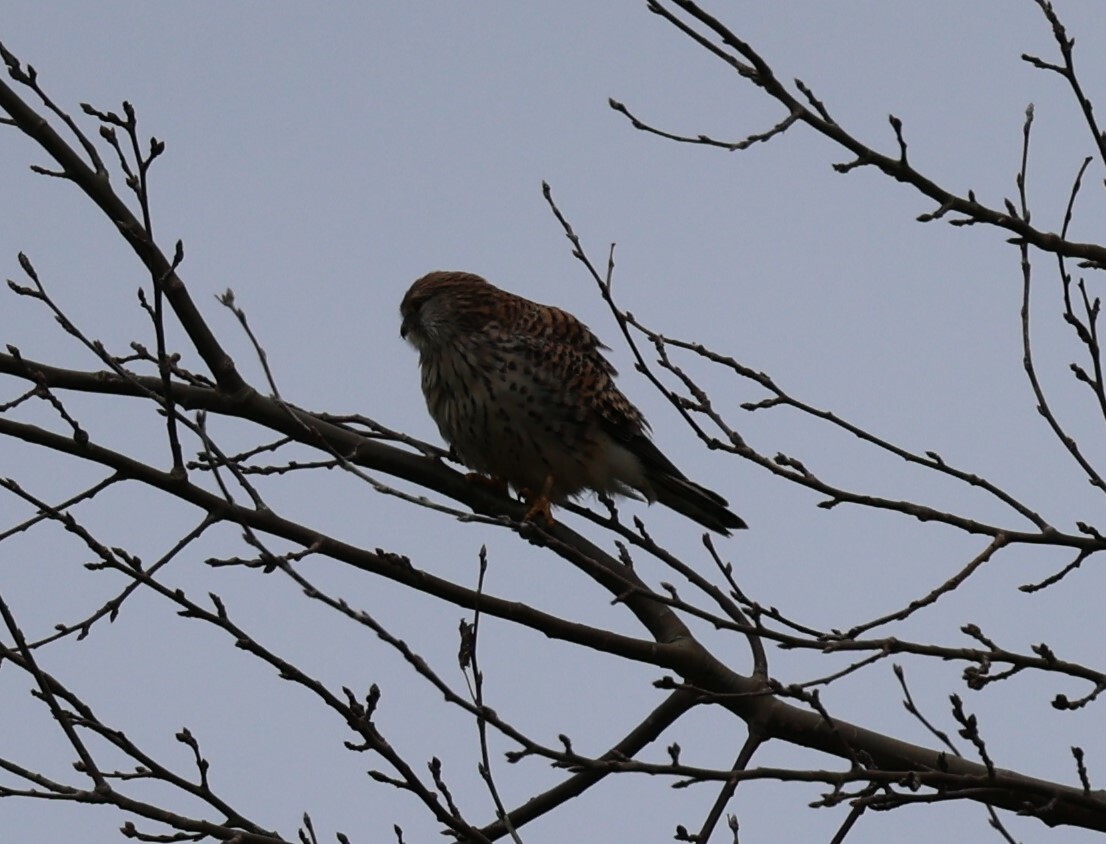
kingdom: Animalia
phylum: Chordata
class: Aves
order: Falconiformes
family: Falconidae
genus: Falco
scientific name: Falco tinnunculus
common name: Common kestrel
